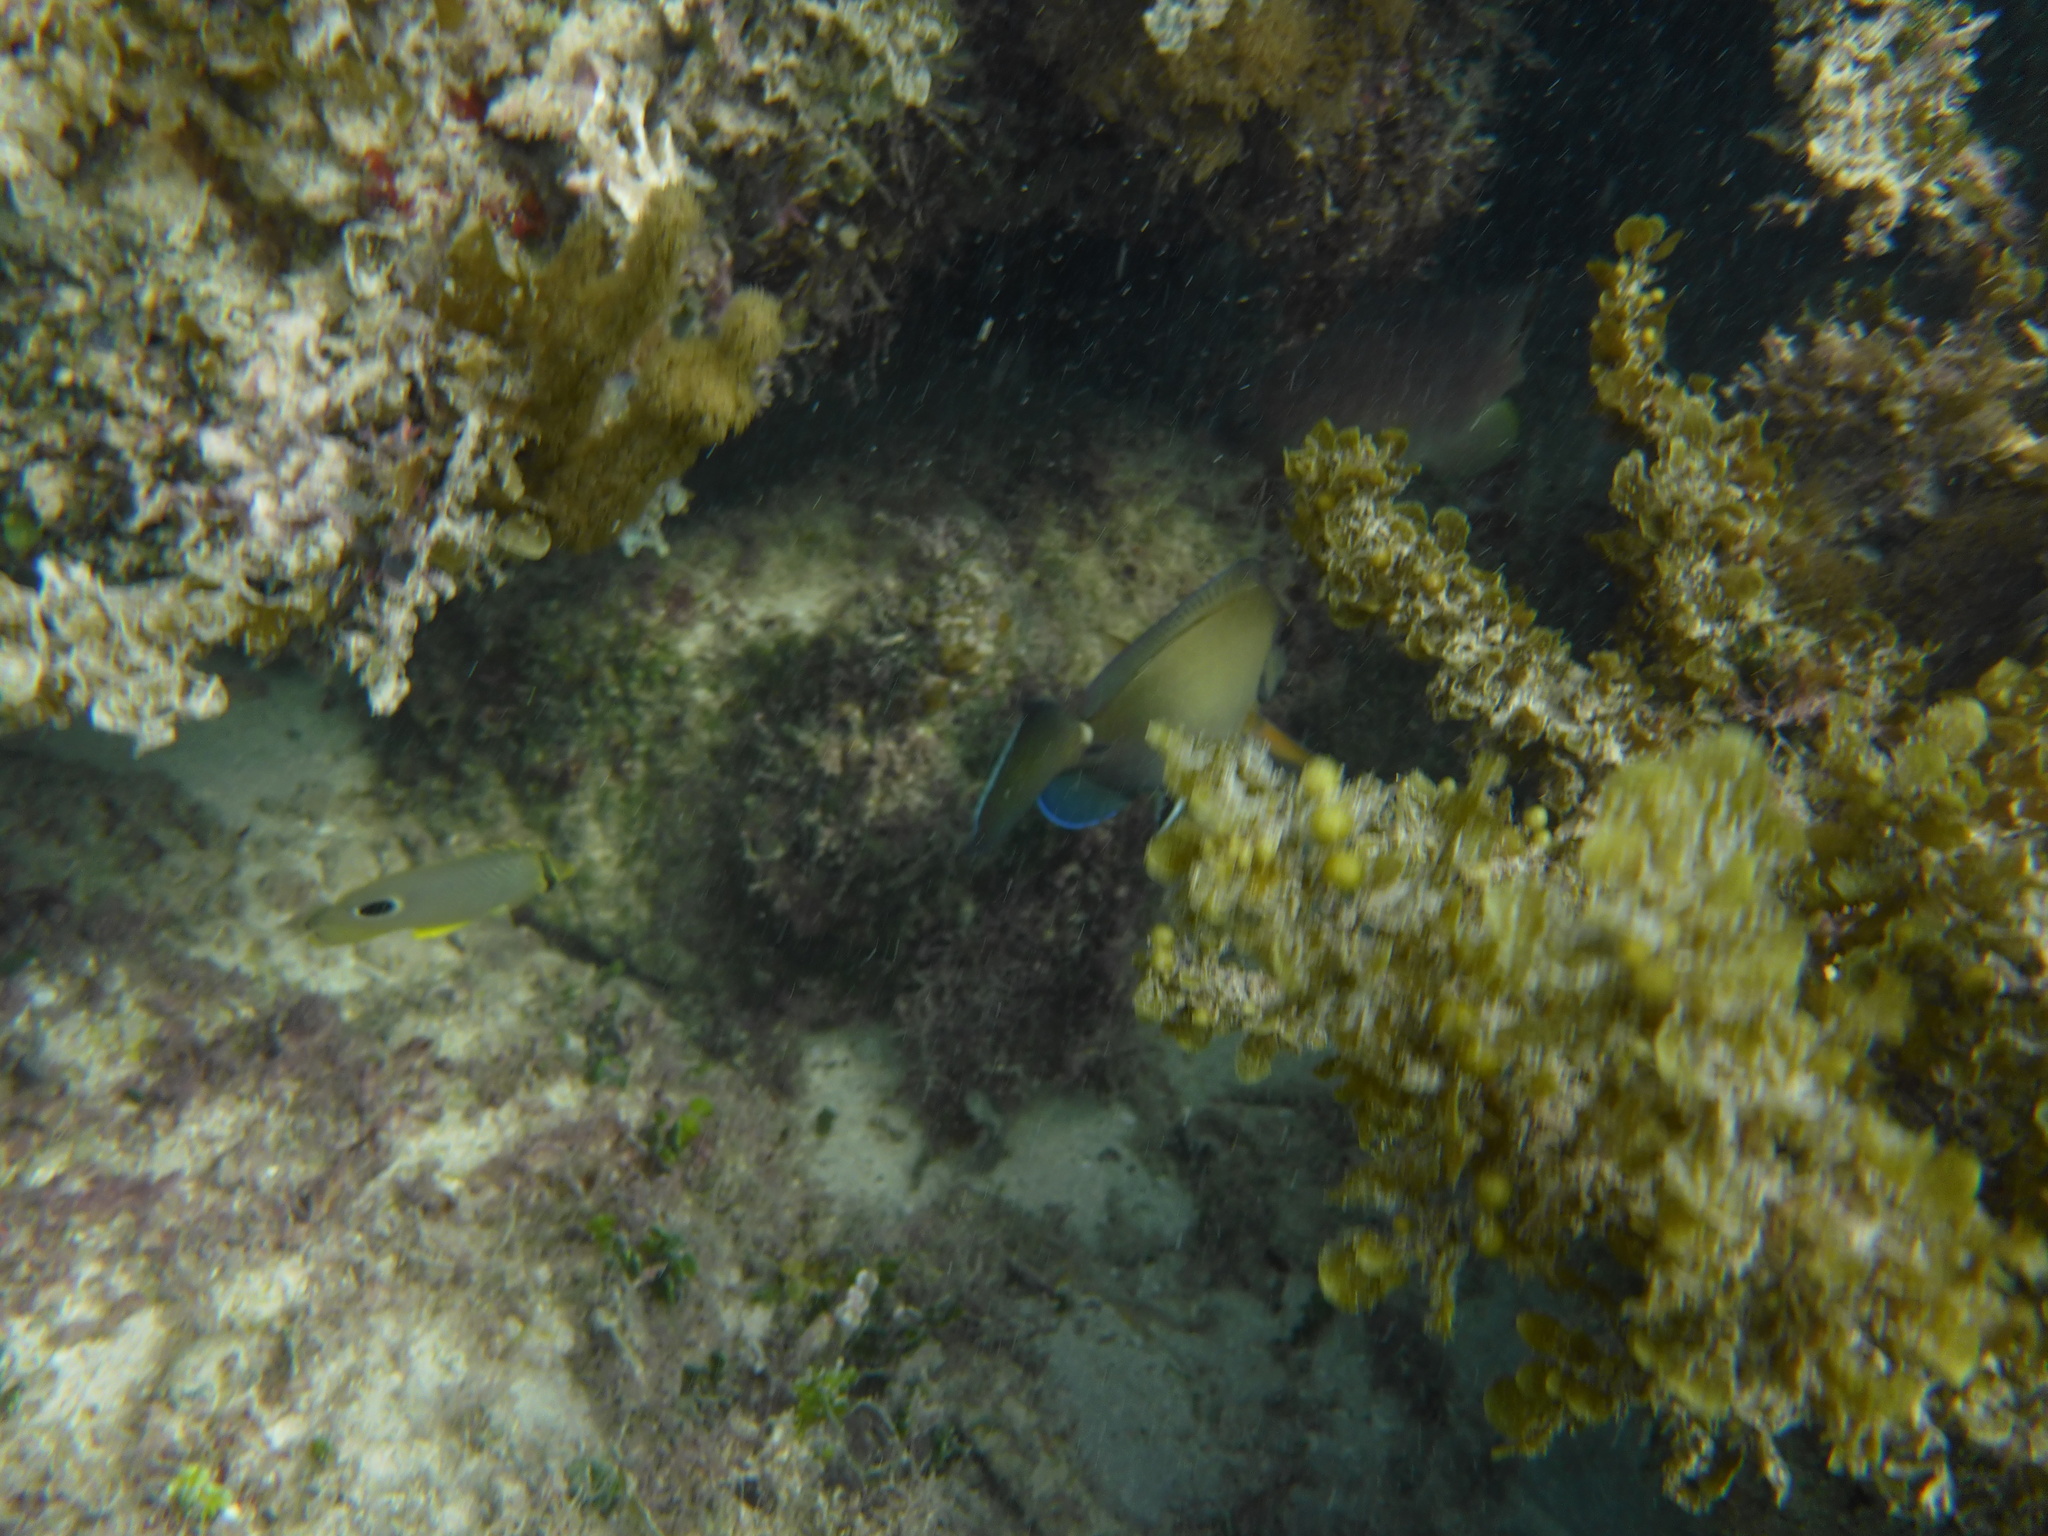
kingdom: Animalia
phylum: Chordata
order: Perciformes
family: Acanthuridae
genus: Acanthurus
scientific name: Acanthurus bahianus
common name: Ocean surgeon
